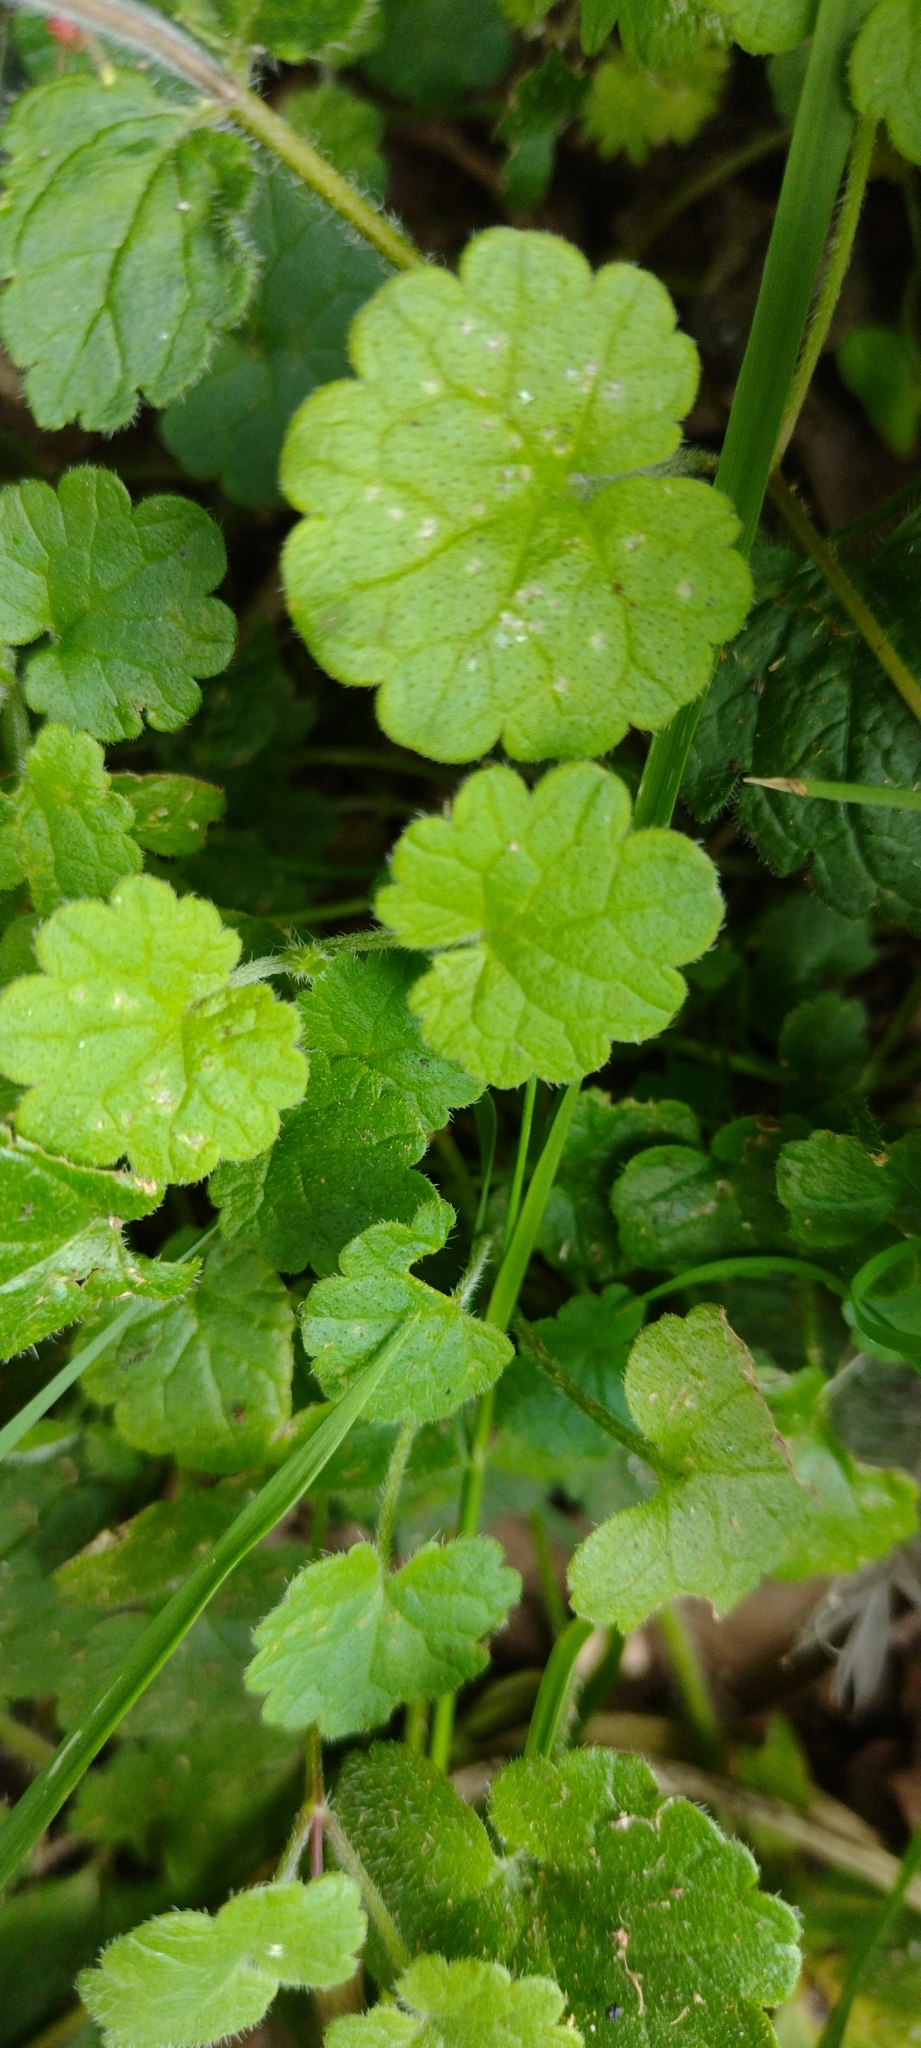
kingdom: Plantae
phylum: Tracheophyta
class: Magnoliopsida
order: Lamiales
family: Lamiaceae
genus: Glechoma
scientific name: Glechoma hederacea
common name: Ground ivy
